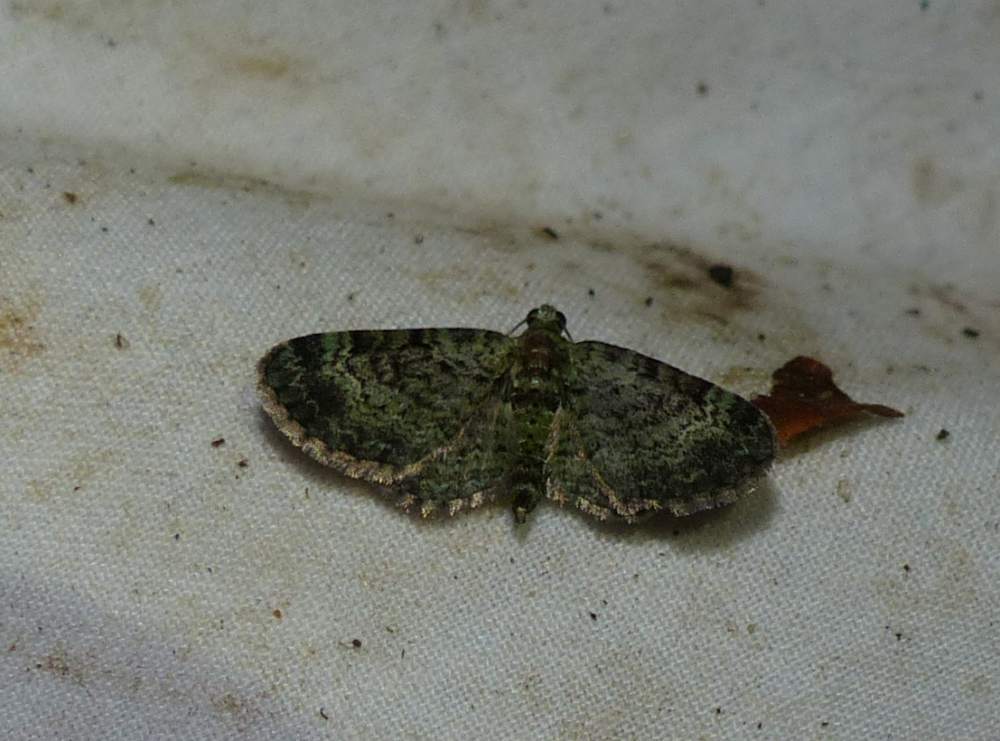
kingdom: Animalia
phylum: Arthropoda
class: Insecta
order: Lepidoptera
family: Geometridae
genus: Pasiphila
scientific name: Pasiphila rectangulata
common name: Green pug
